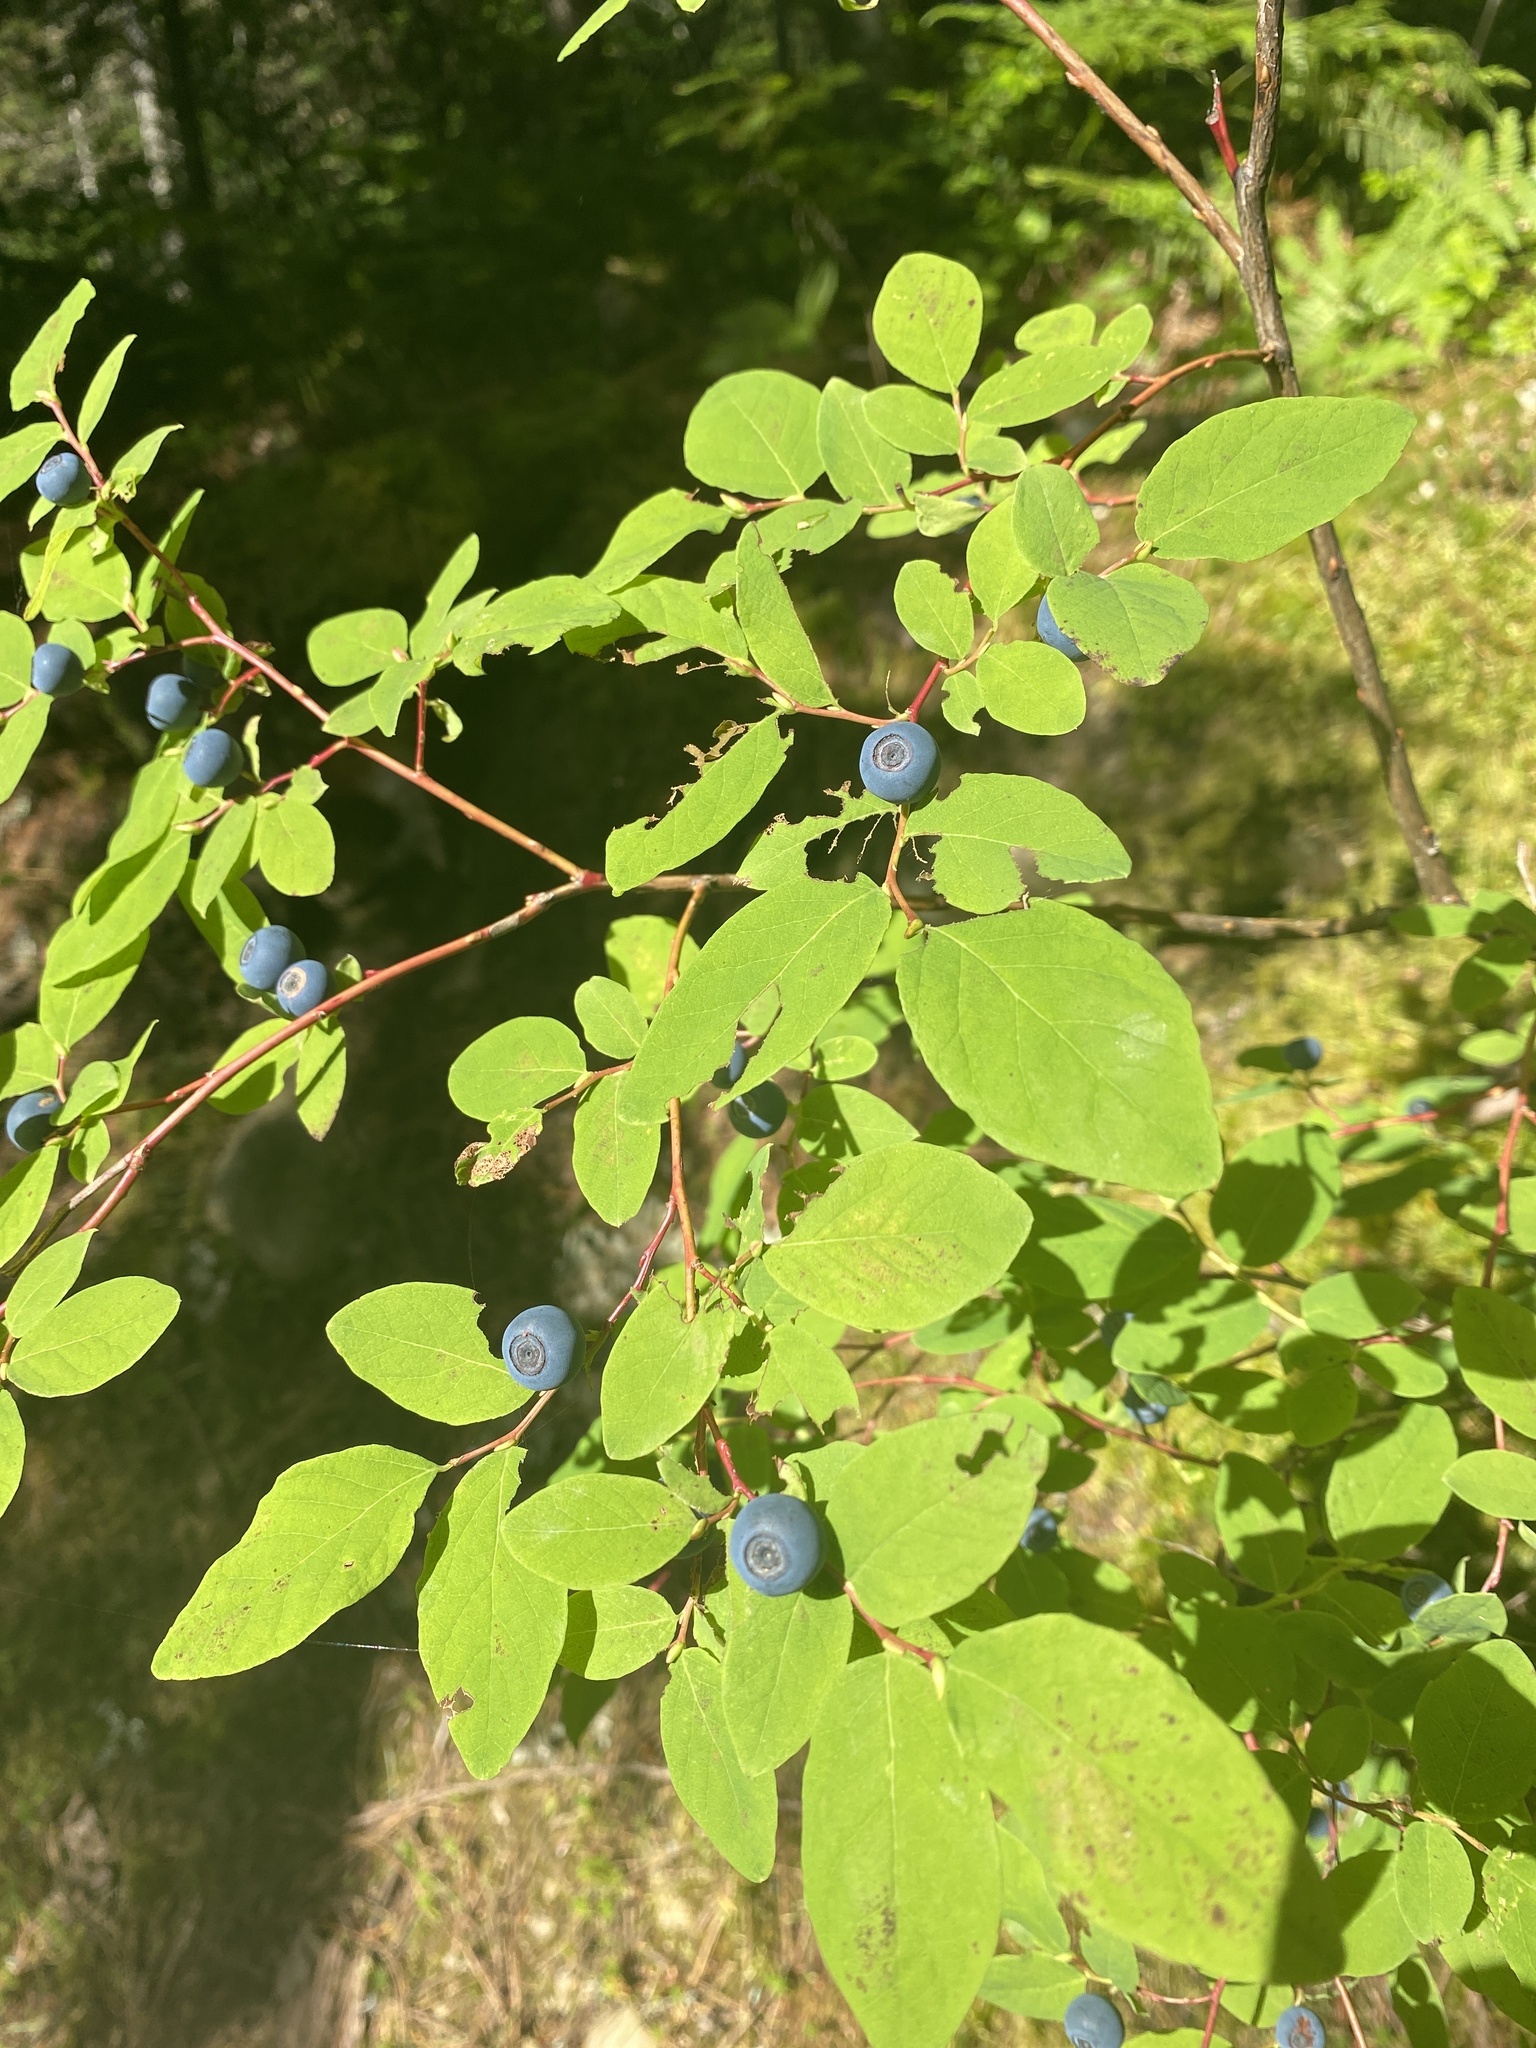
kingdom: Plantae
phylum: Tracheophyta
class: Magnoliopsida
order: Ericales
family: Ericaceae
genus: Vaccinium
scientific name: Vaccinium ovalifolium
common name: Early blueberry
